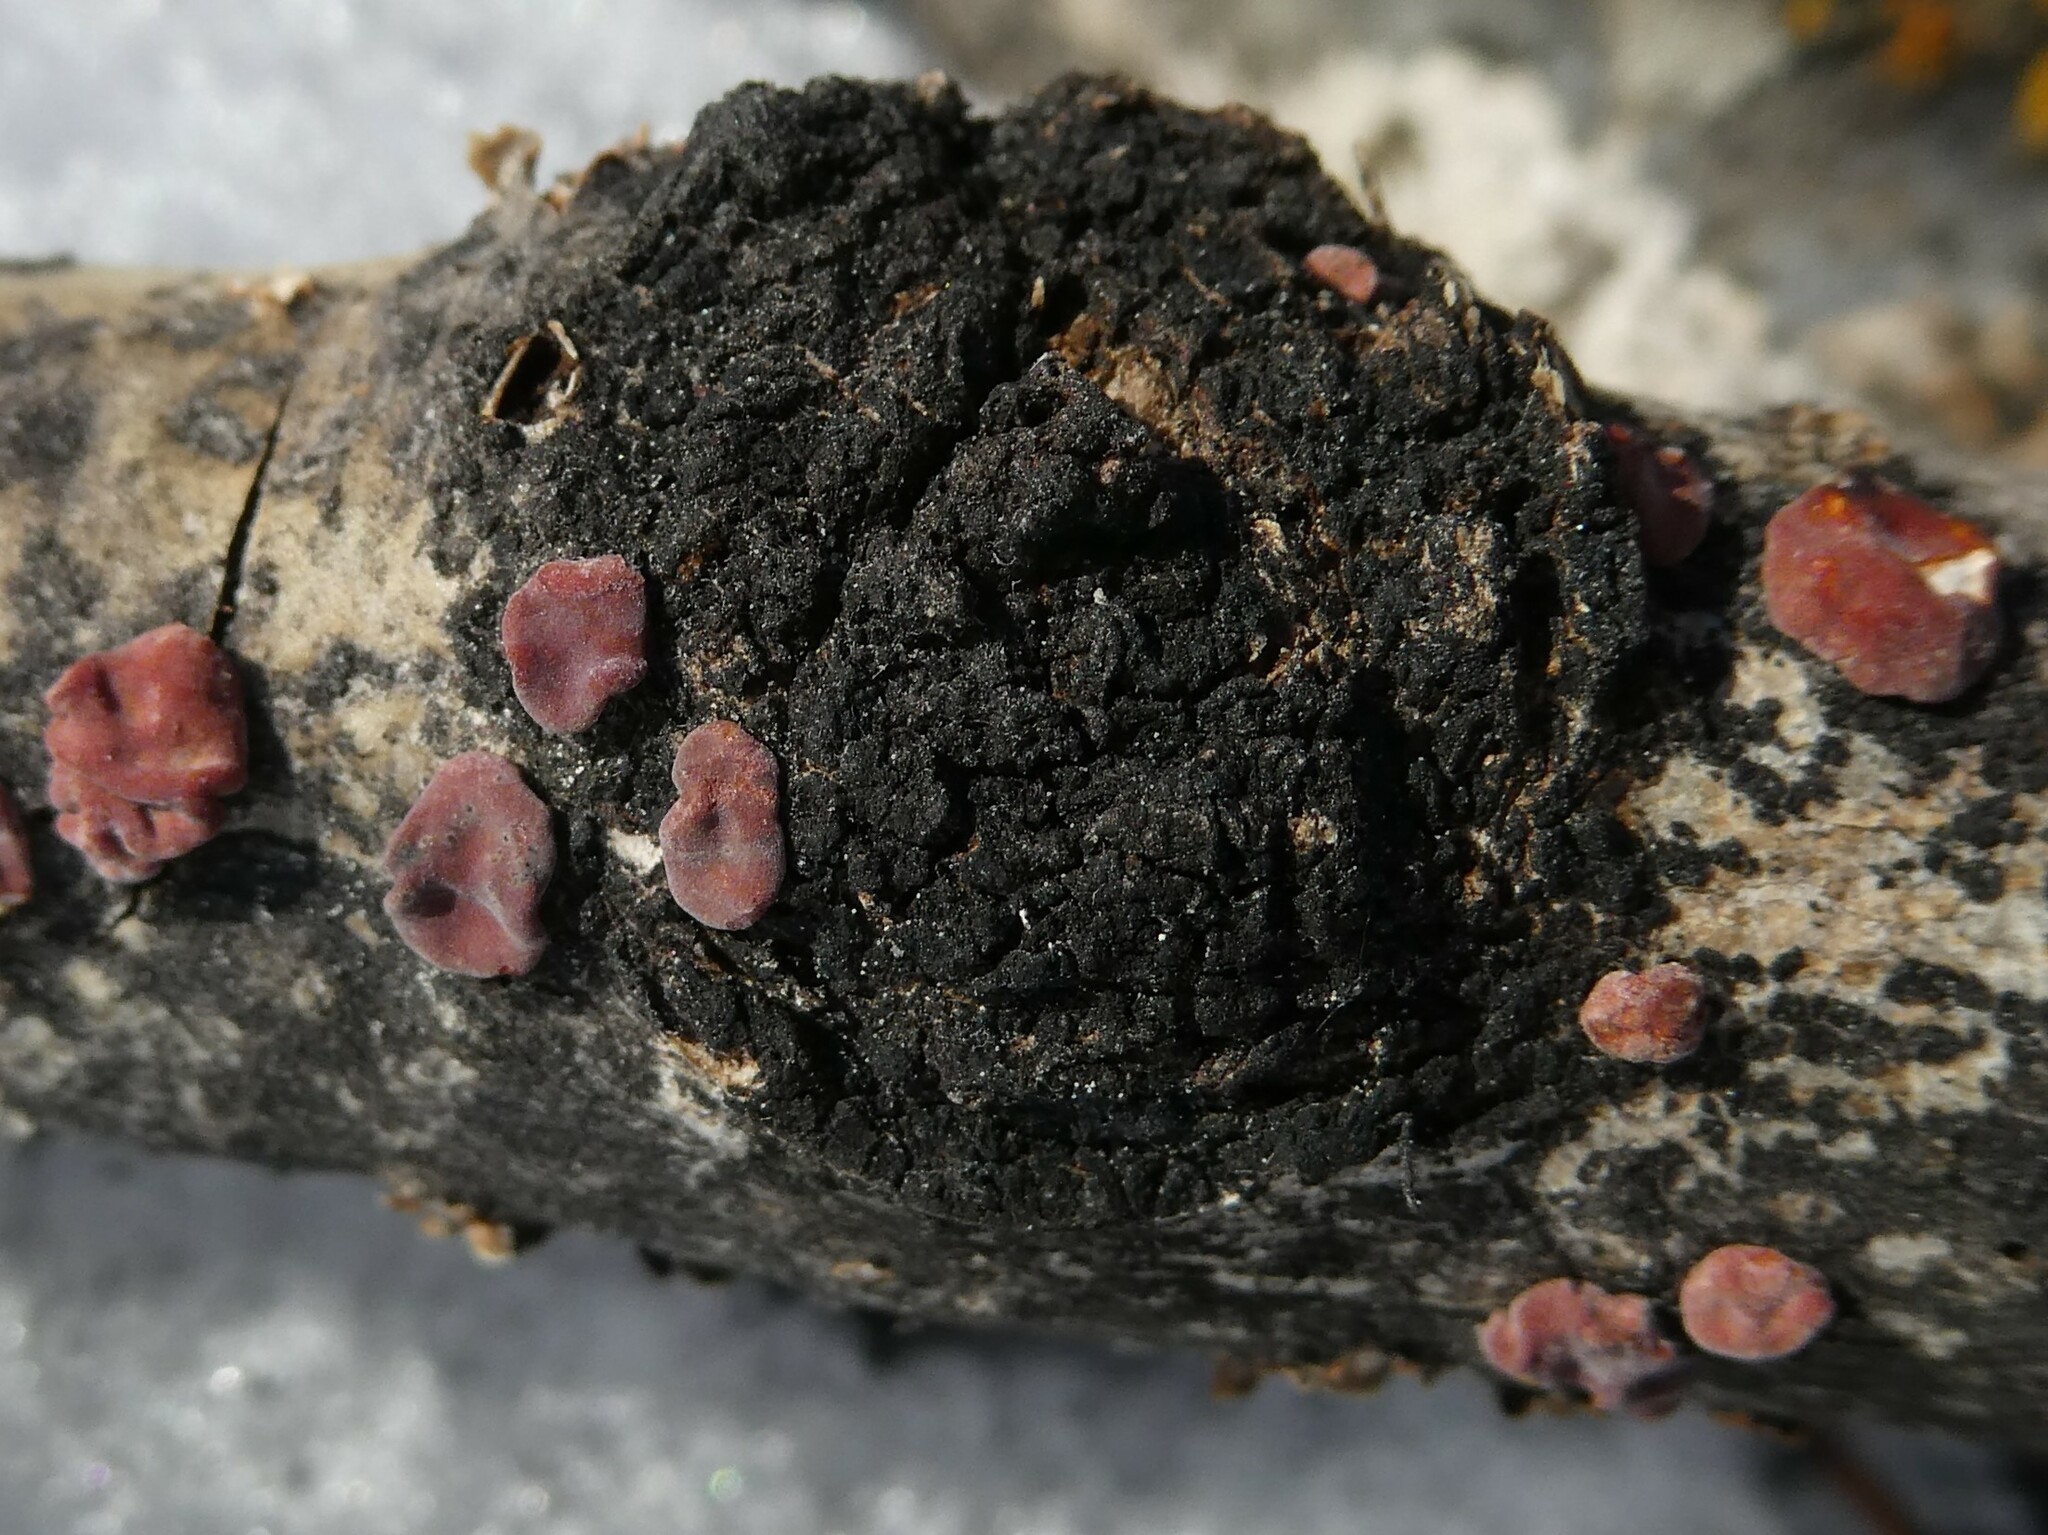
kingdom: Fungi
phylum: Basidiomycota
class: Agaricomycetes
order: Russulales
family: Peniophoraceae
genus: Peniophora
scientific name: Peniophora rufa
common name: Red tree brain fungus
